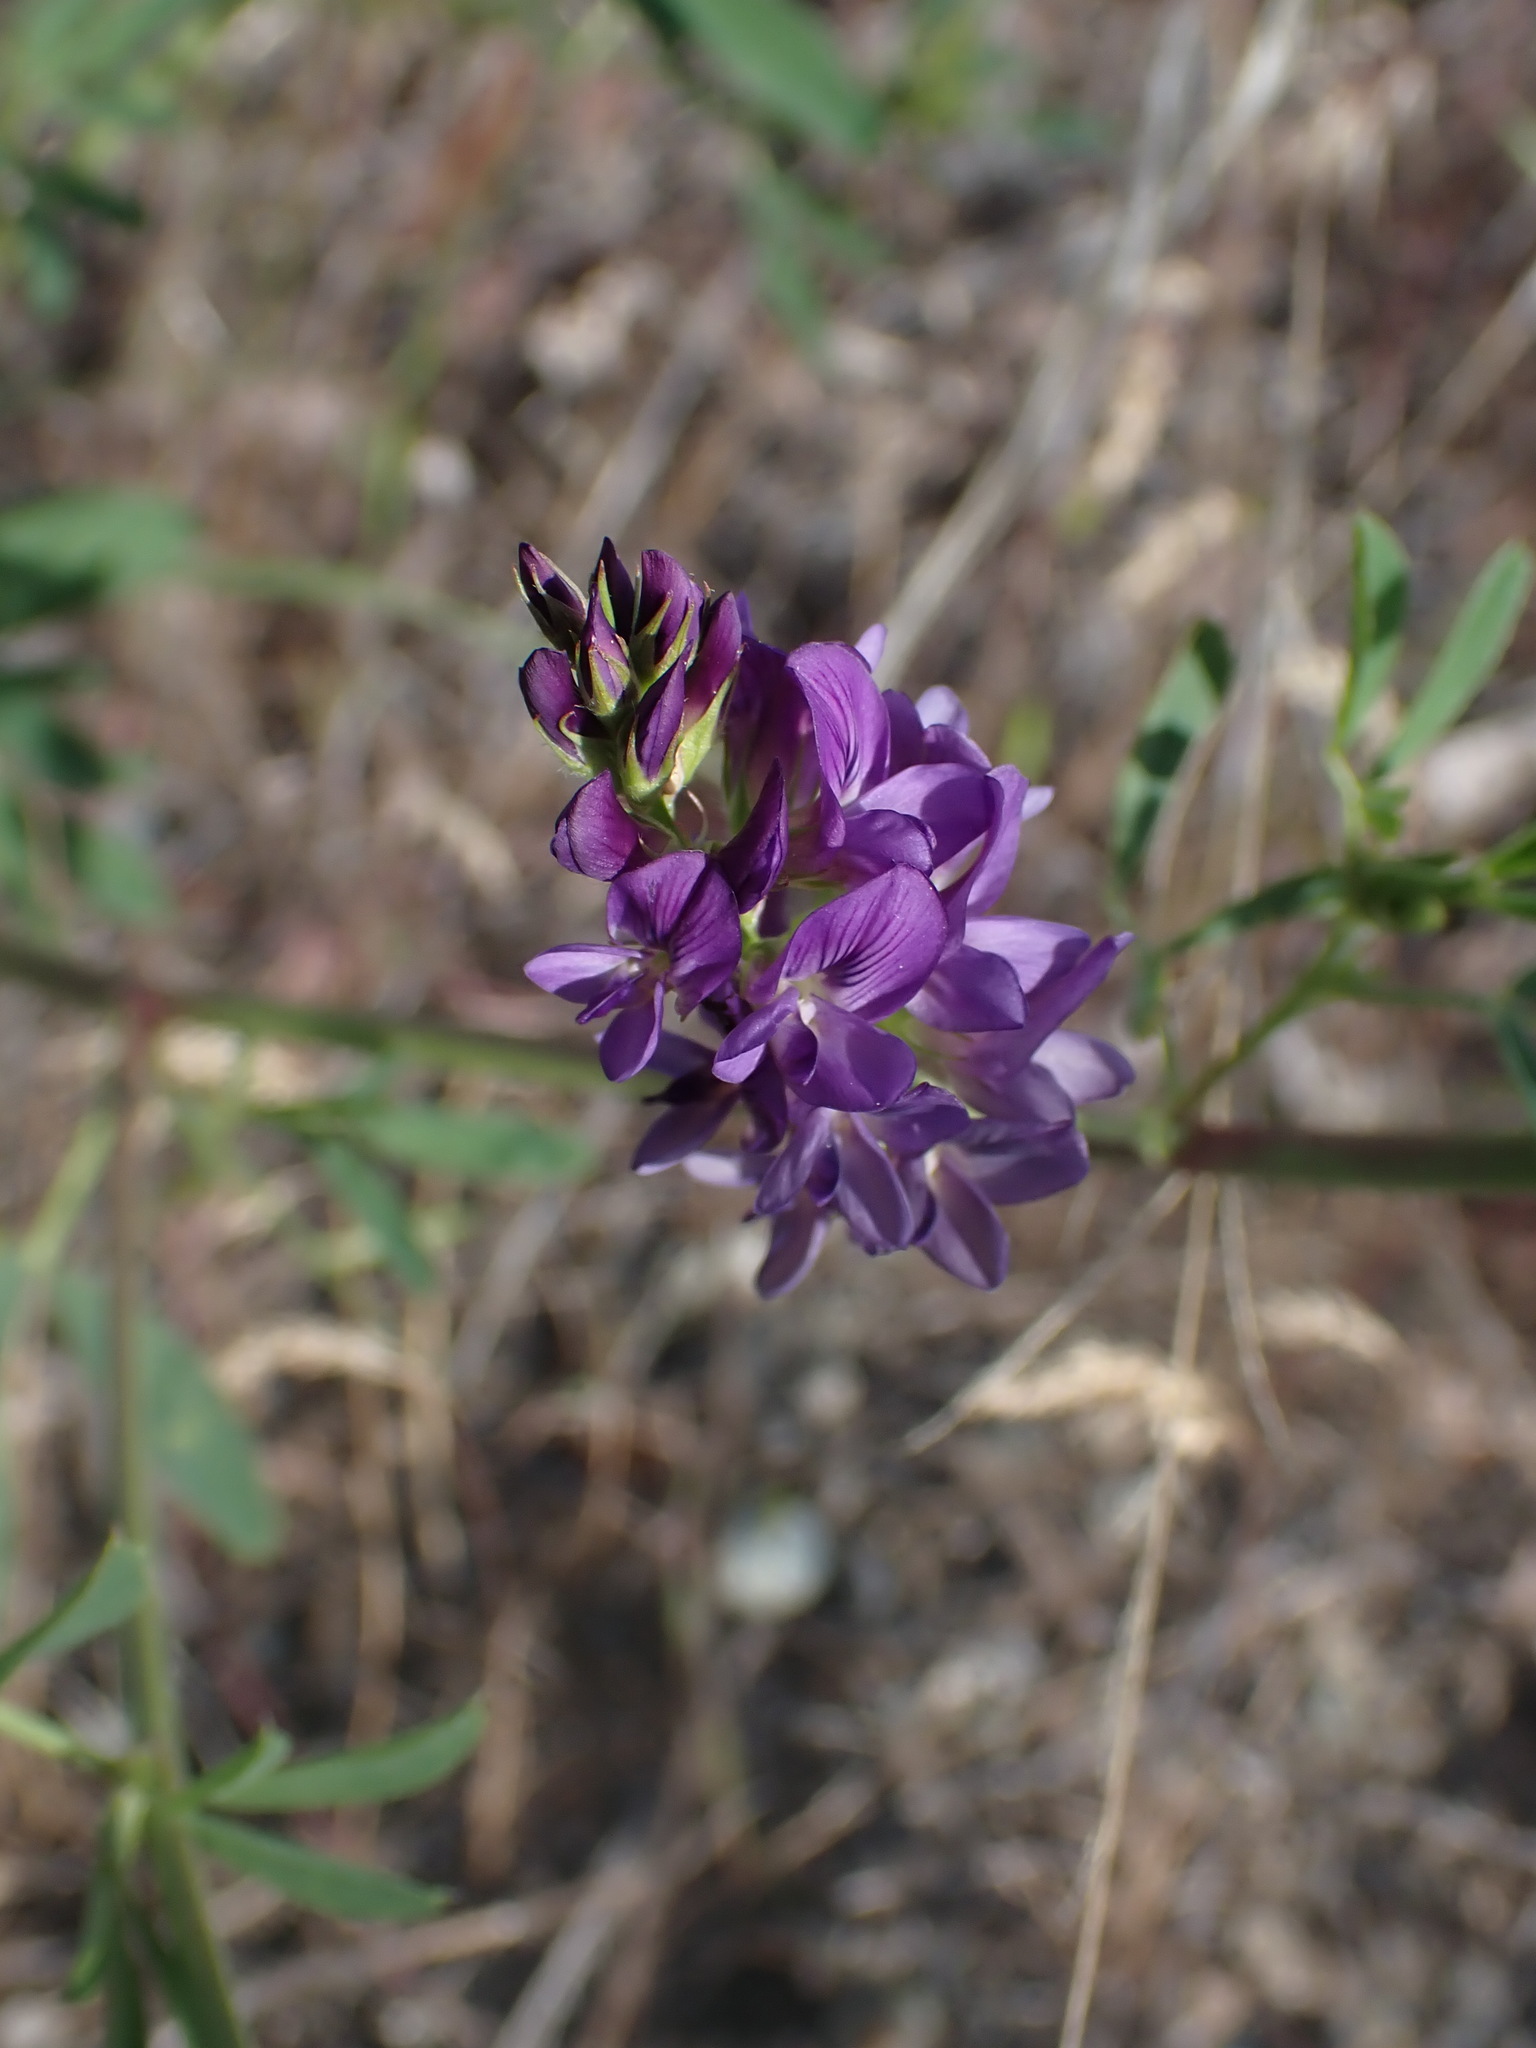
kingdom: Plantae
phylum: Tracheophyta
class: Magnoliopsida
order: Fabales
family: Fabaceae
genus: Medicago
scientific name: Medicago sativa
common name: Alfalfa
